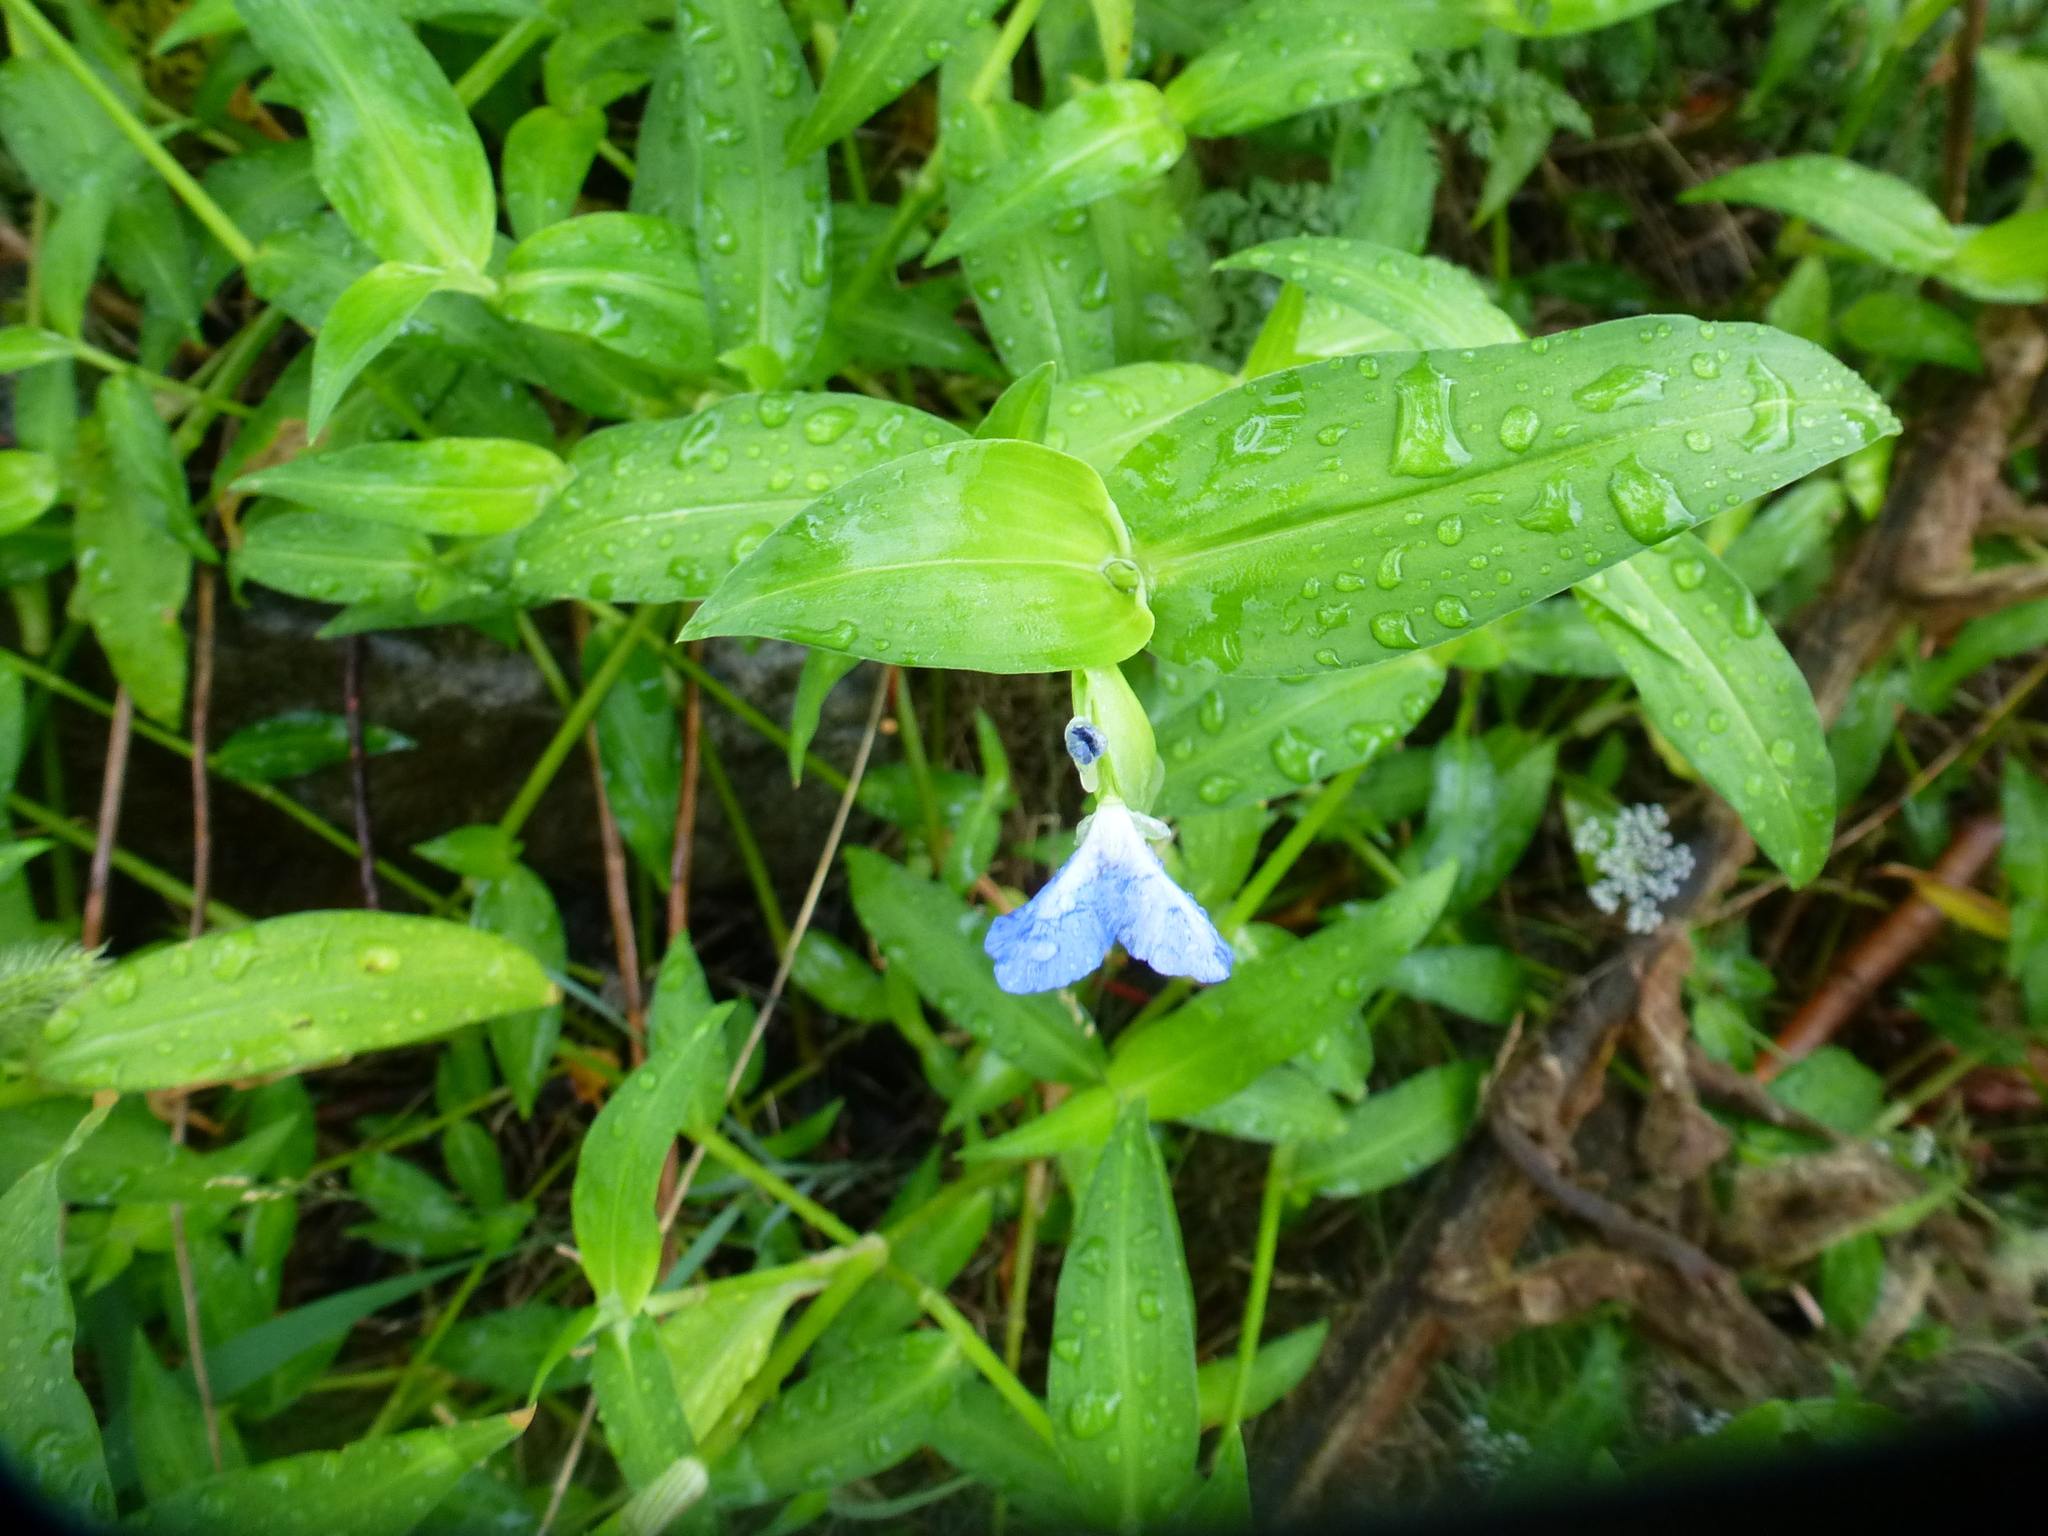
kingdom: Plantae
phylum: Tracheophyta
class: Liliopsida
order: Commelinales
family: Commelinaceae
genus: Commelina
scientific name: Commelina communis
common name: Asiatic dayflower
